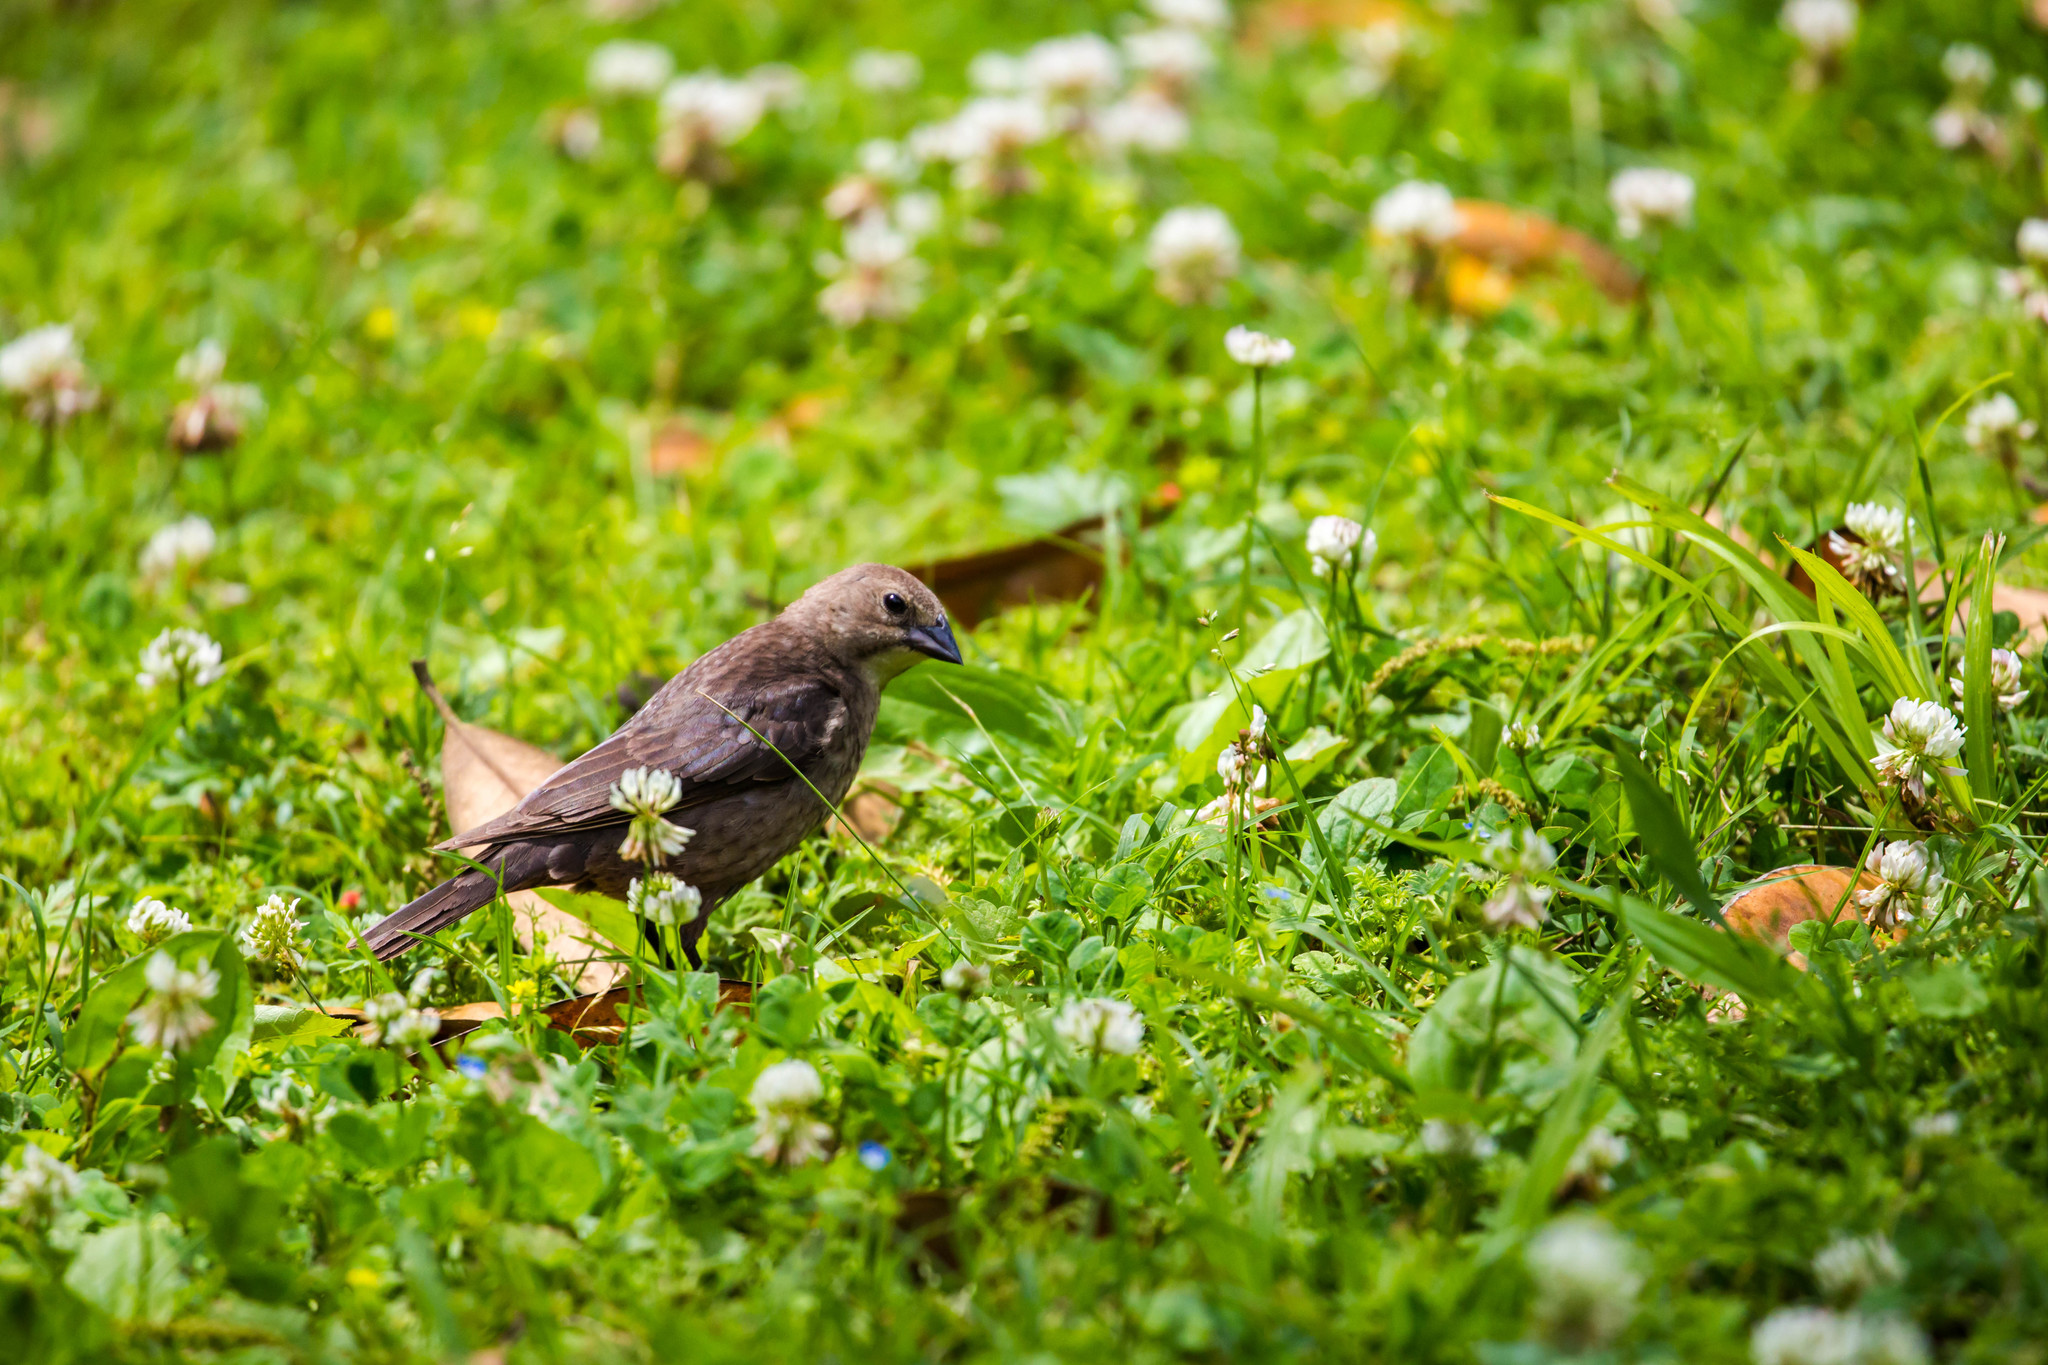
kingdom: Animalia
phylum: Chordata
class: Aves
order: Passeriformes
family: Icteridae
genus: Molothrus
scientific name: Molothrus ater
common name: Brown-headed cowbird
